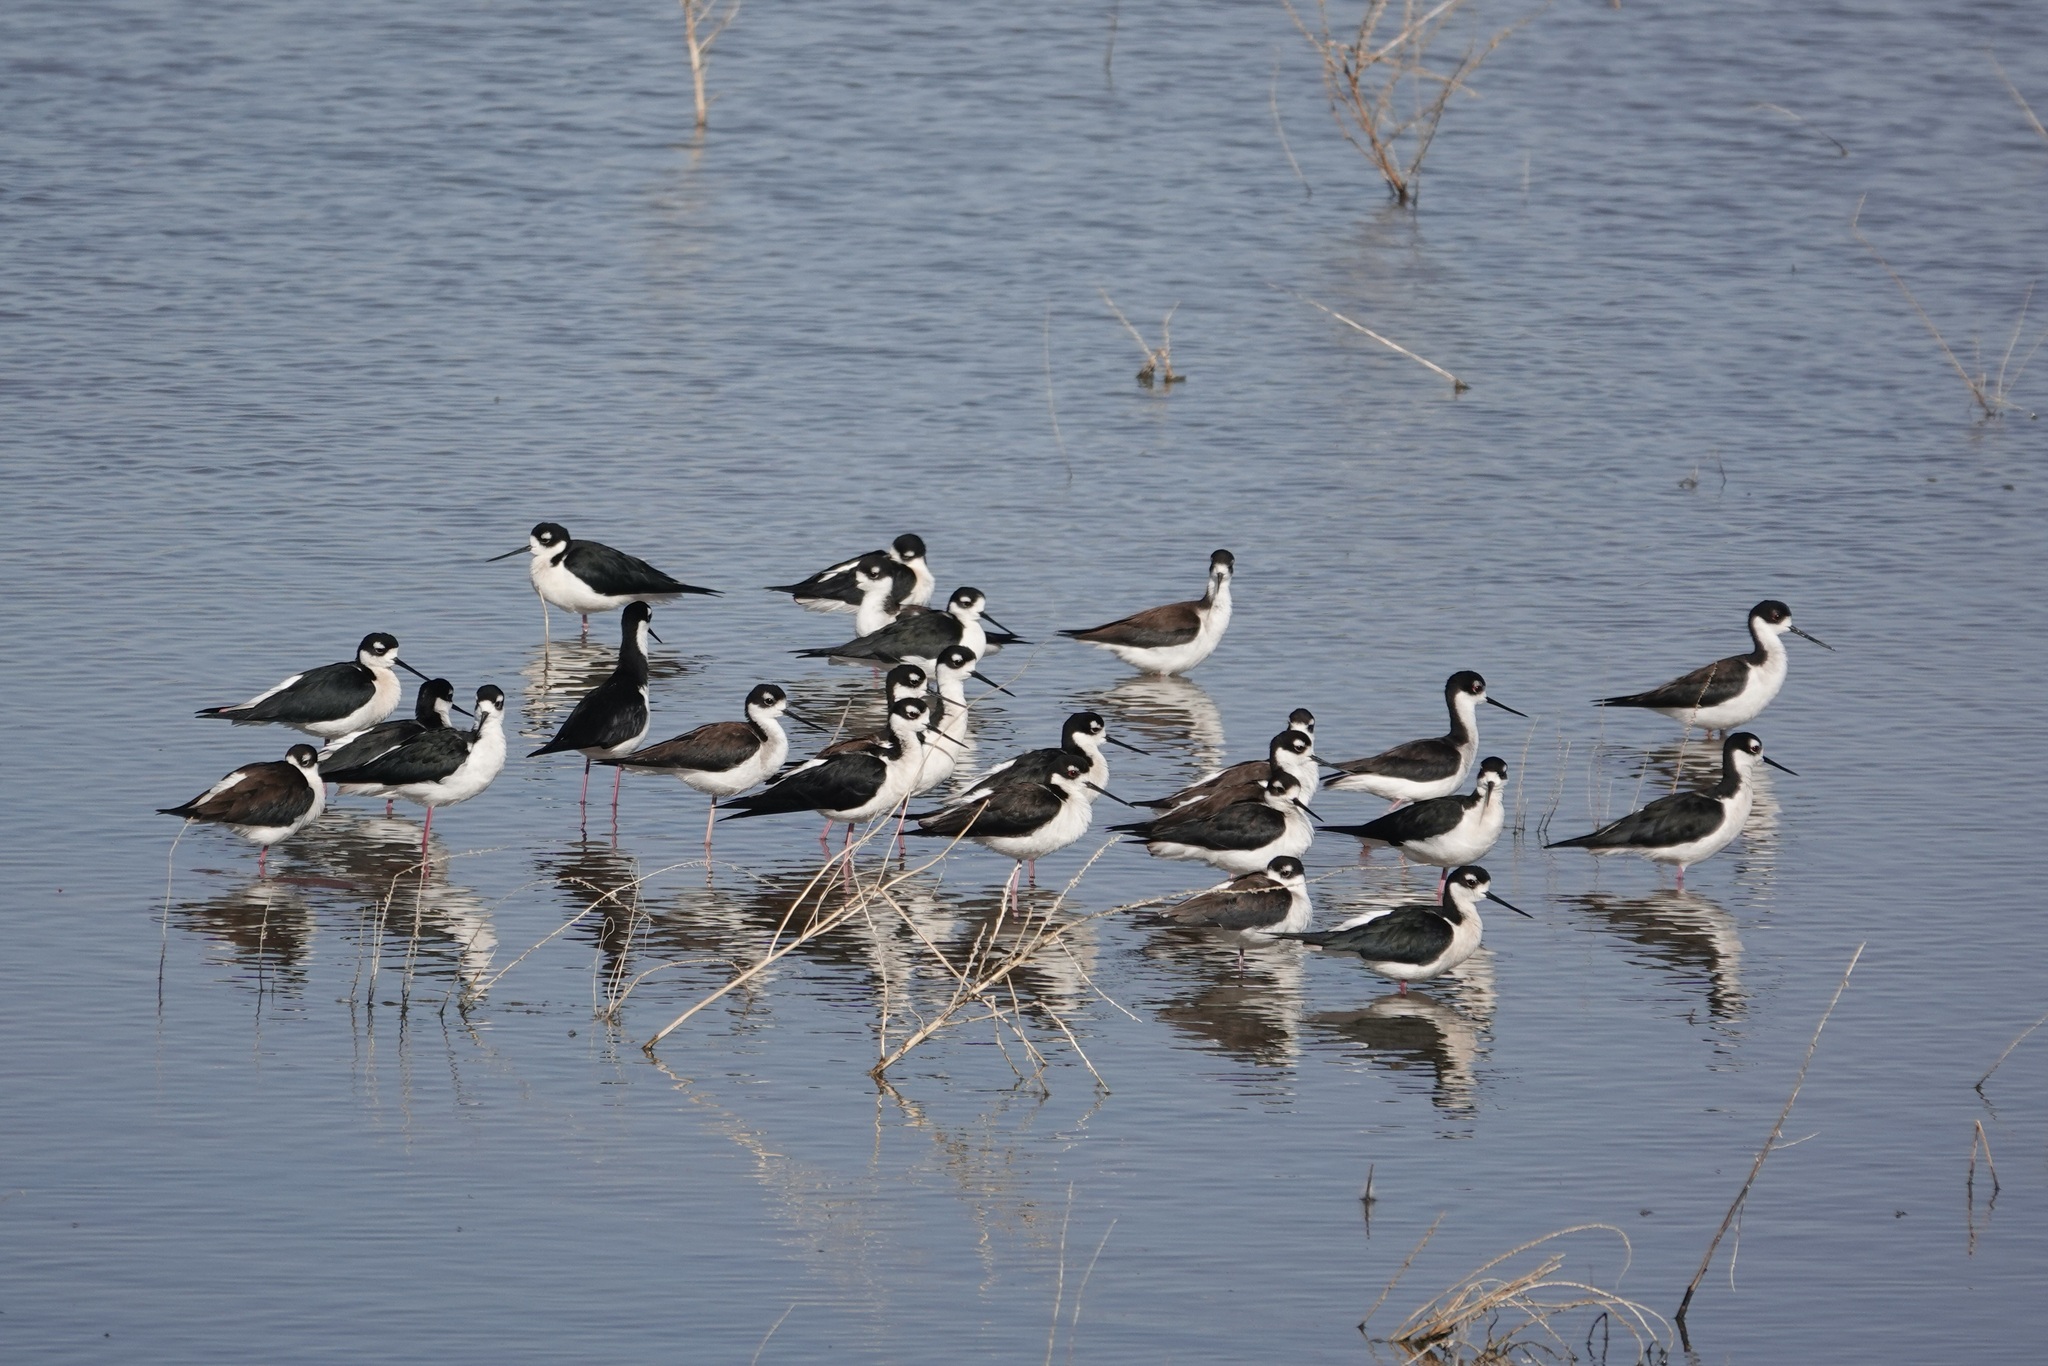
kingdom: Animalia
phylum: Chordata
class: Aves
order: Charadriiformes
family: Recurvirostridae
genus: Himantopus
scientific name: Himantopus mexicanus
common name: Black-necked stilt
